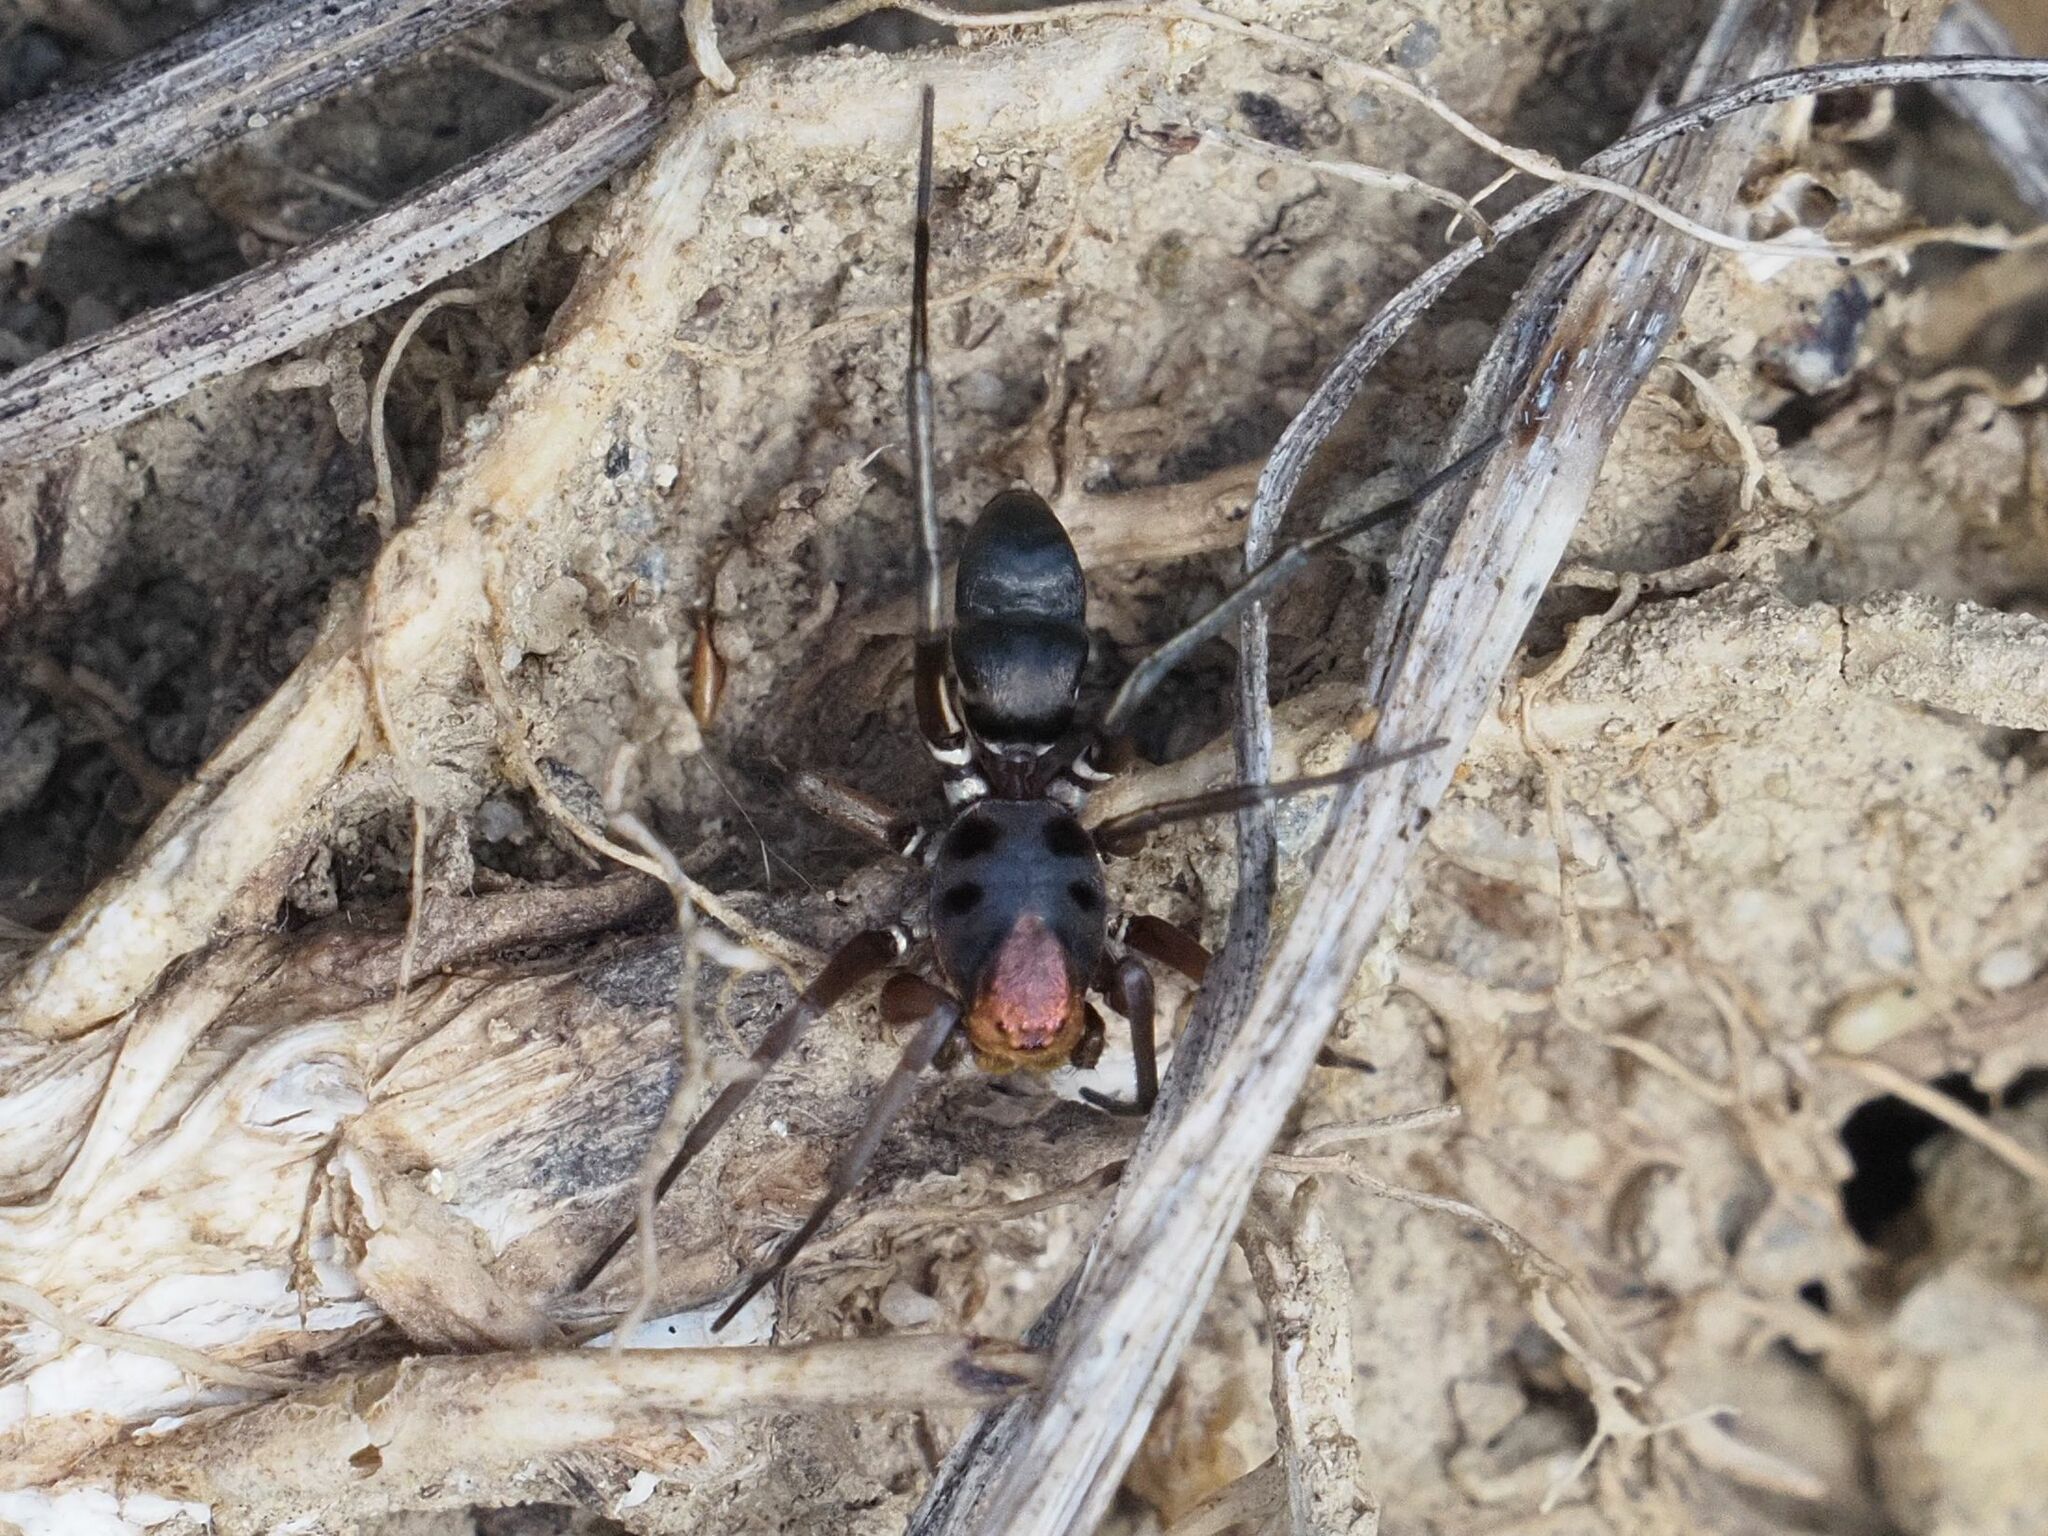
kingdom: Animalia
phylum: Arthropoda
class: Arachnida
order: Araneae
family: Gnaphosidae
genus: Micaria
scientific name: Micaria fulgens
